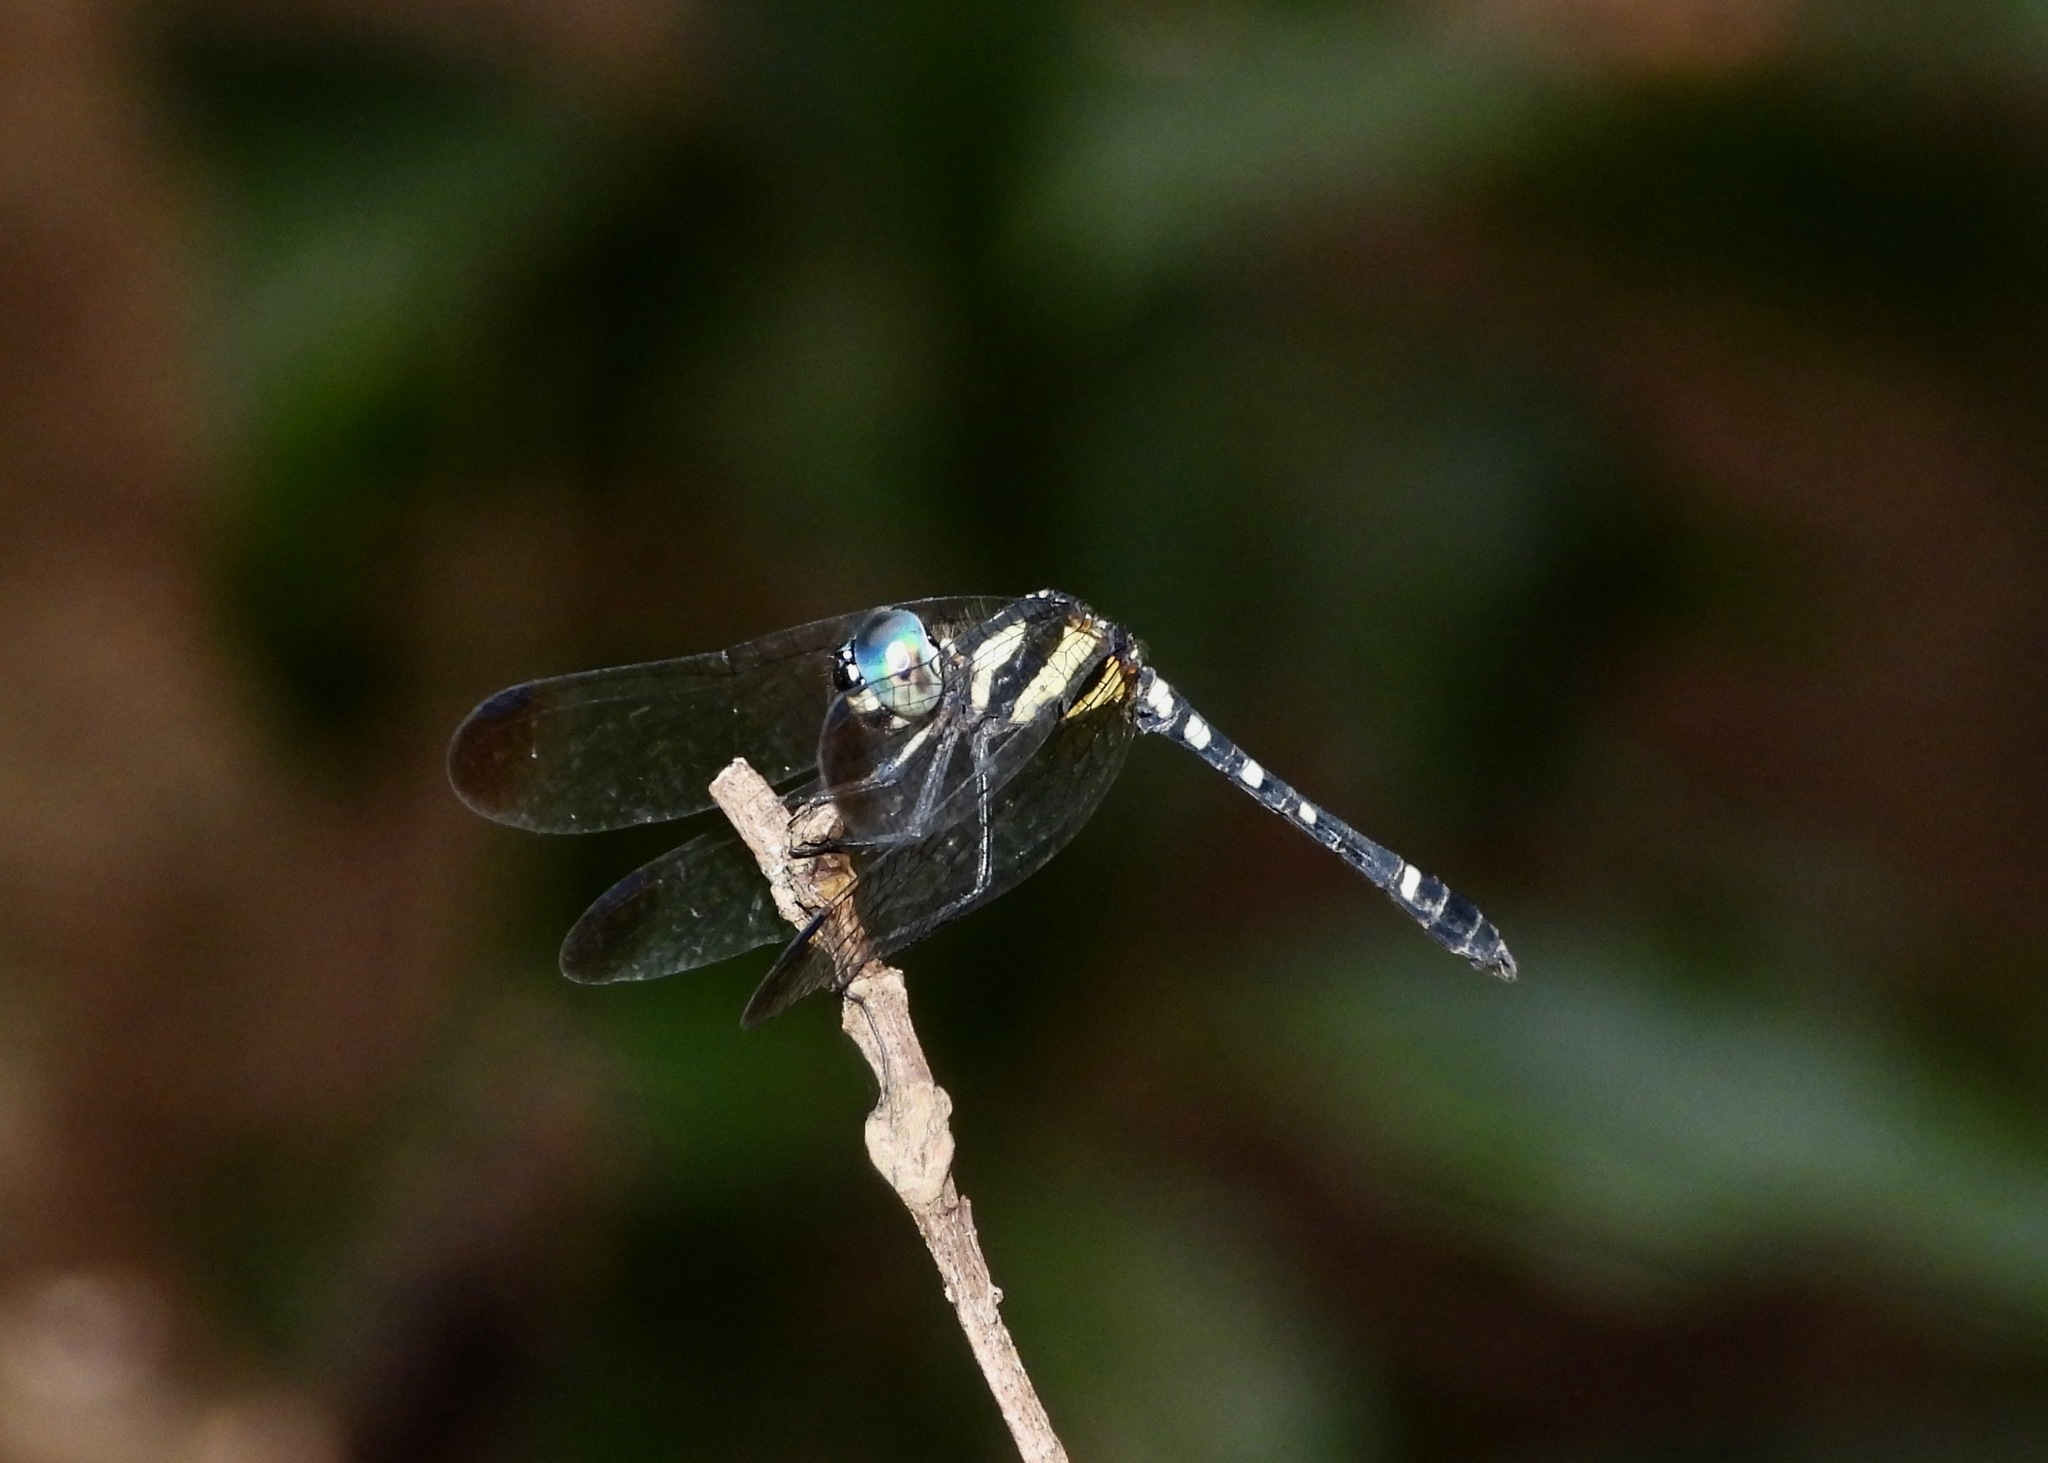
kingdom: Animalia
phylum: Arthropoda
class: Insecta
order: Odonata
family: Libellulidae
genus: Tetrathemis
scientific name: Tetrathemis yerburii
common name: Yerbury’s elf
